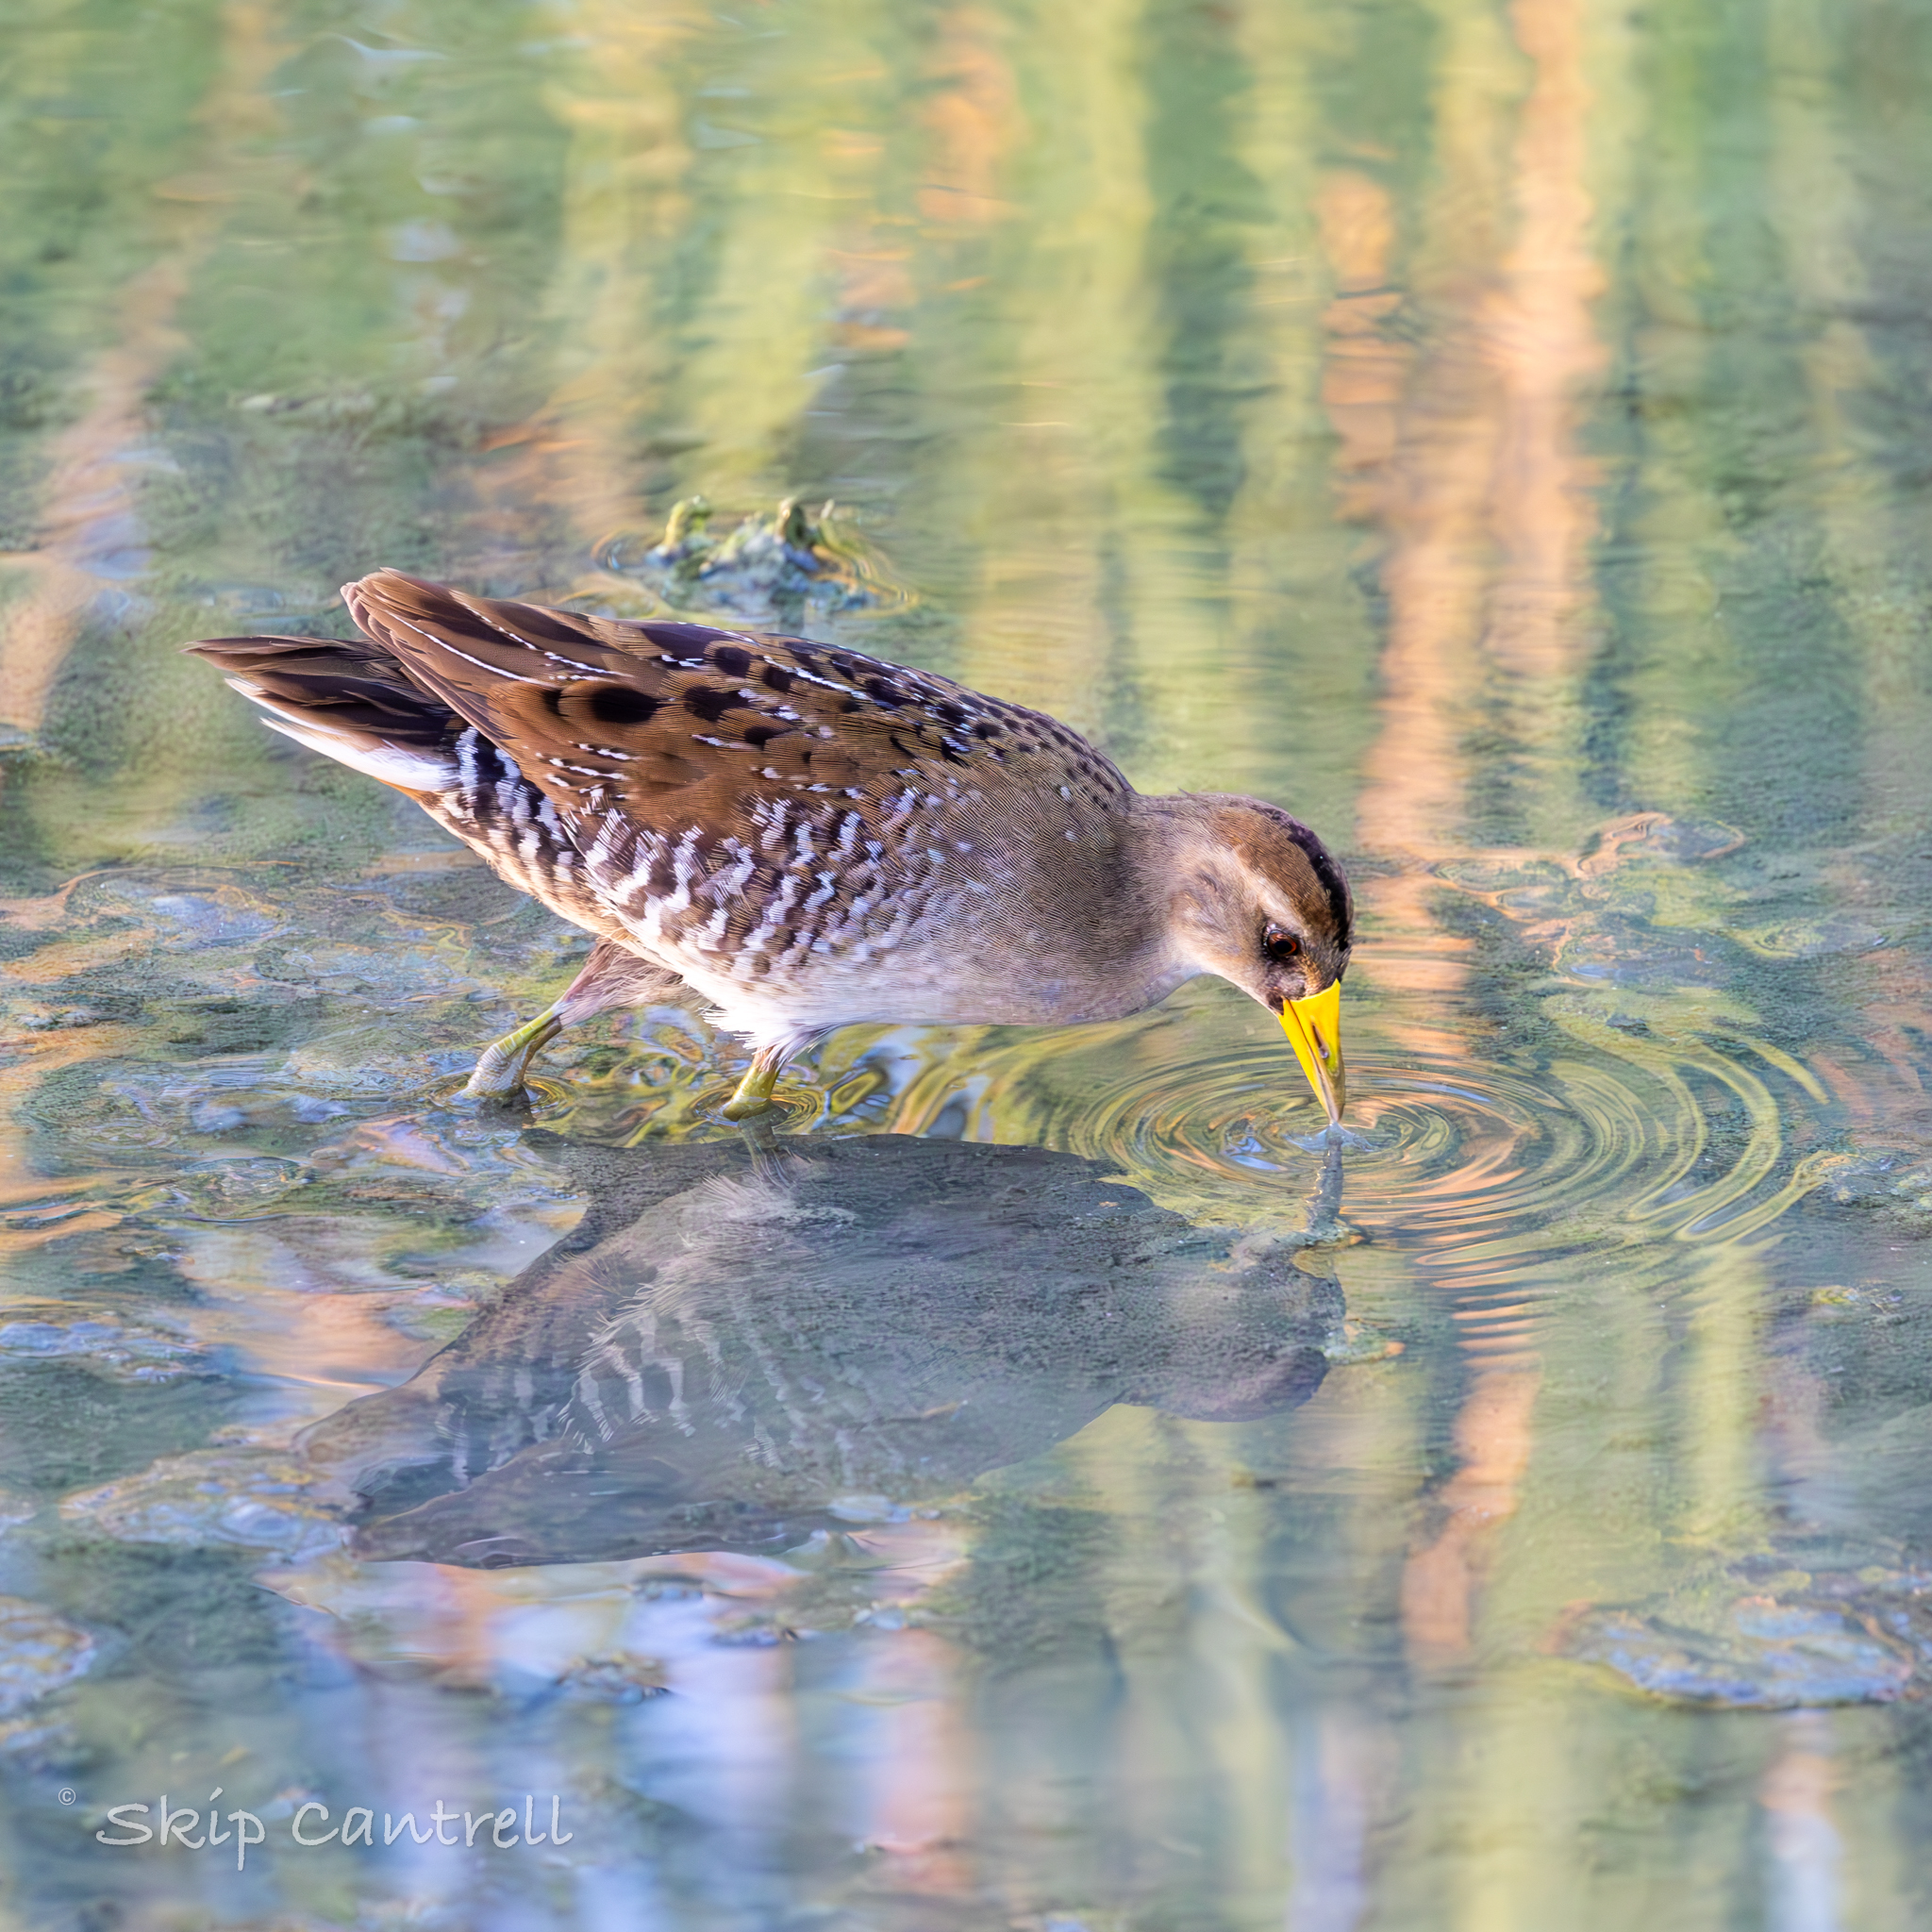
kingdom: Animalia
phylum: Chordata
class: Aves
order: Gruiformes
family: Rallidae
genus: Porzana
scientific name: Porzana carolina
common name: Sora
